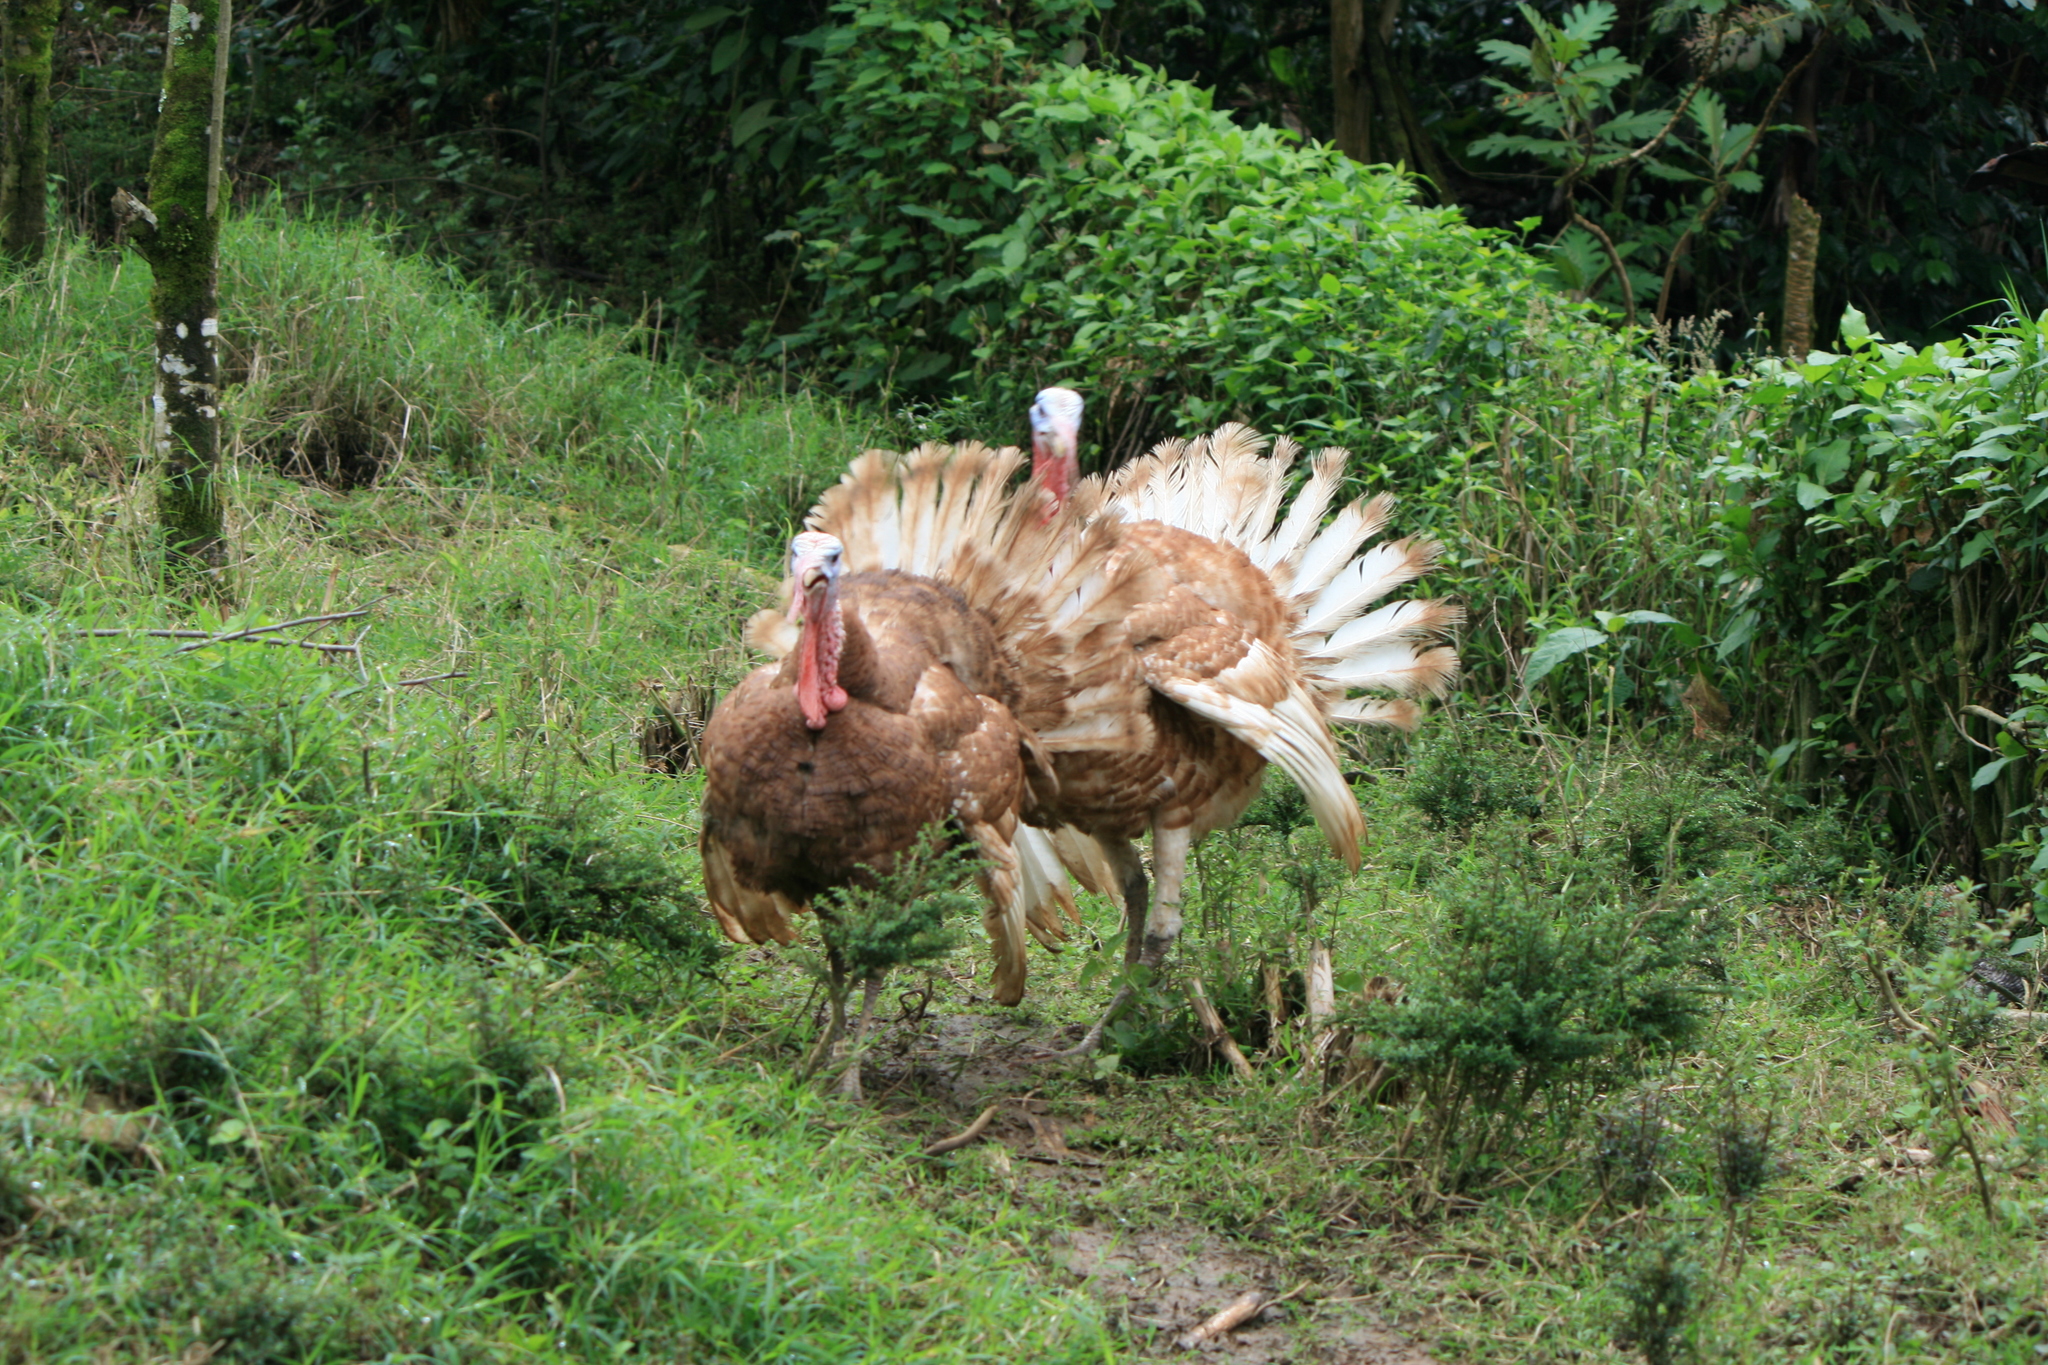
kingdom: Animalia
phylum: Chordata
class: Aves
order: Galliformes
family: Phasianidae
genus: Meleagris
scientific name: Meleagris gallopavo
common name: Wild turkey
